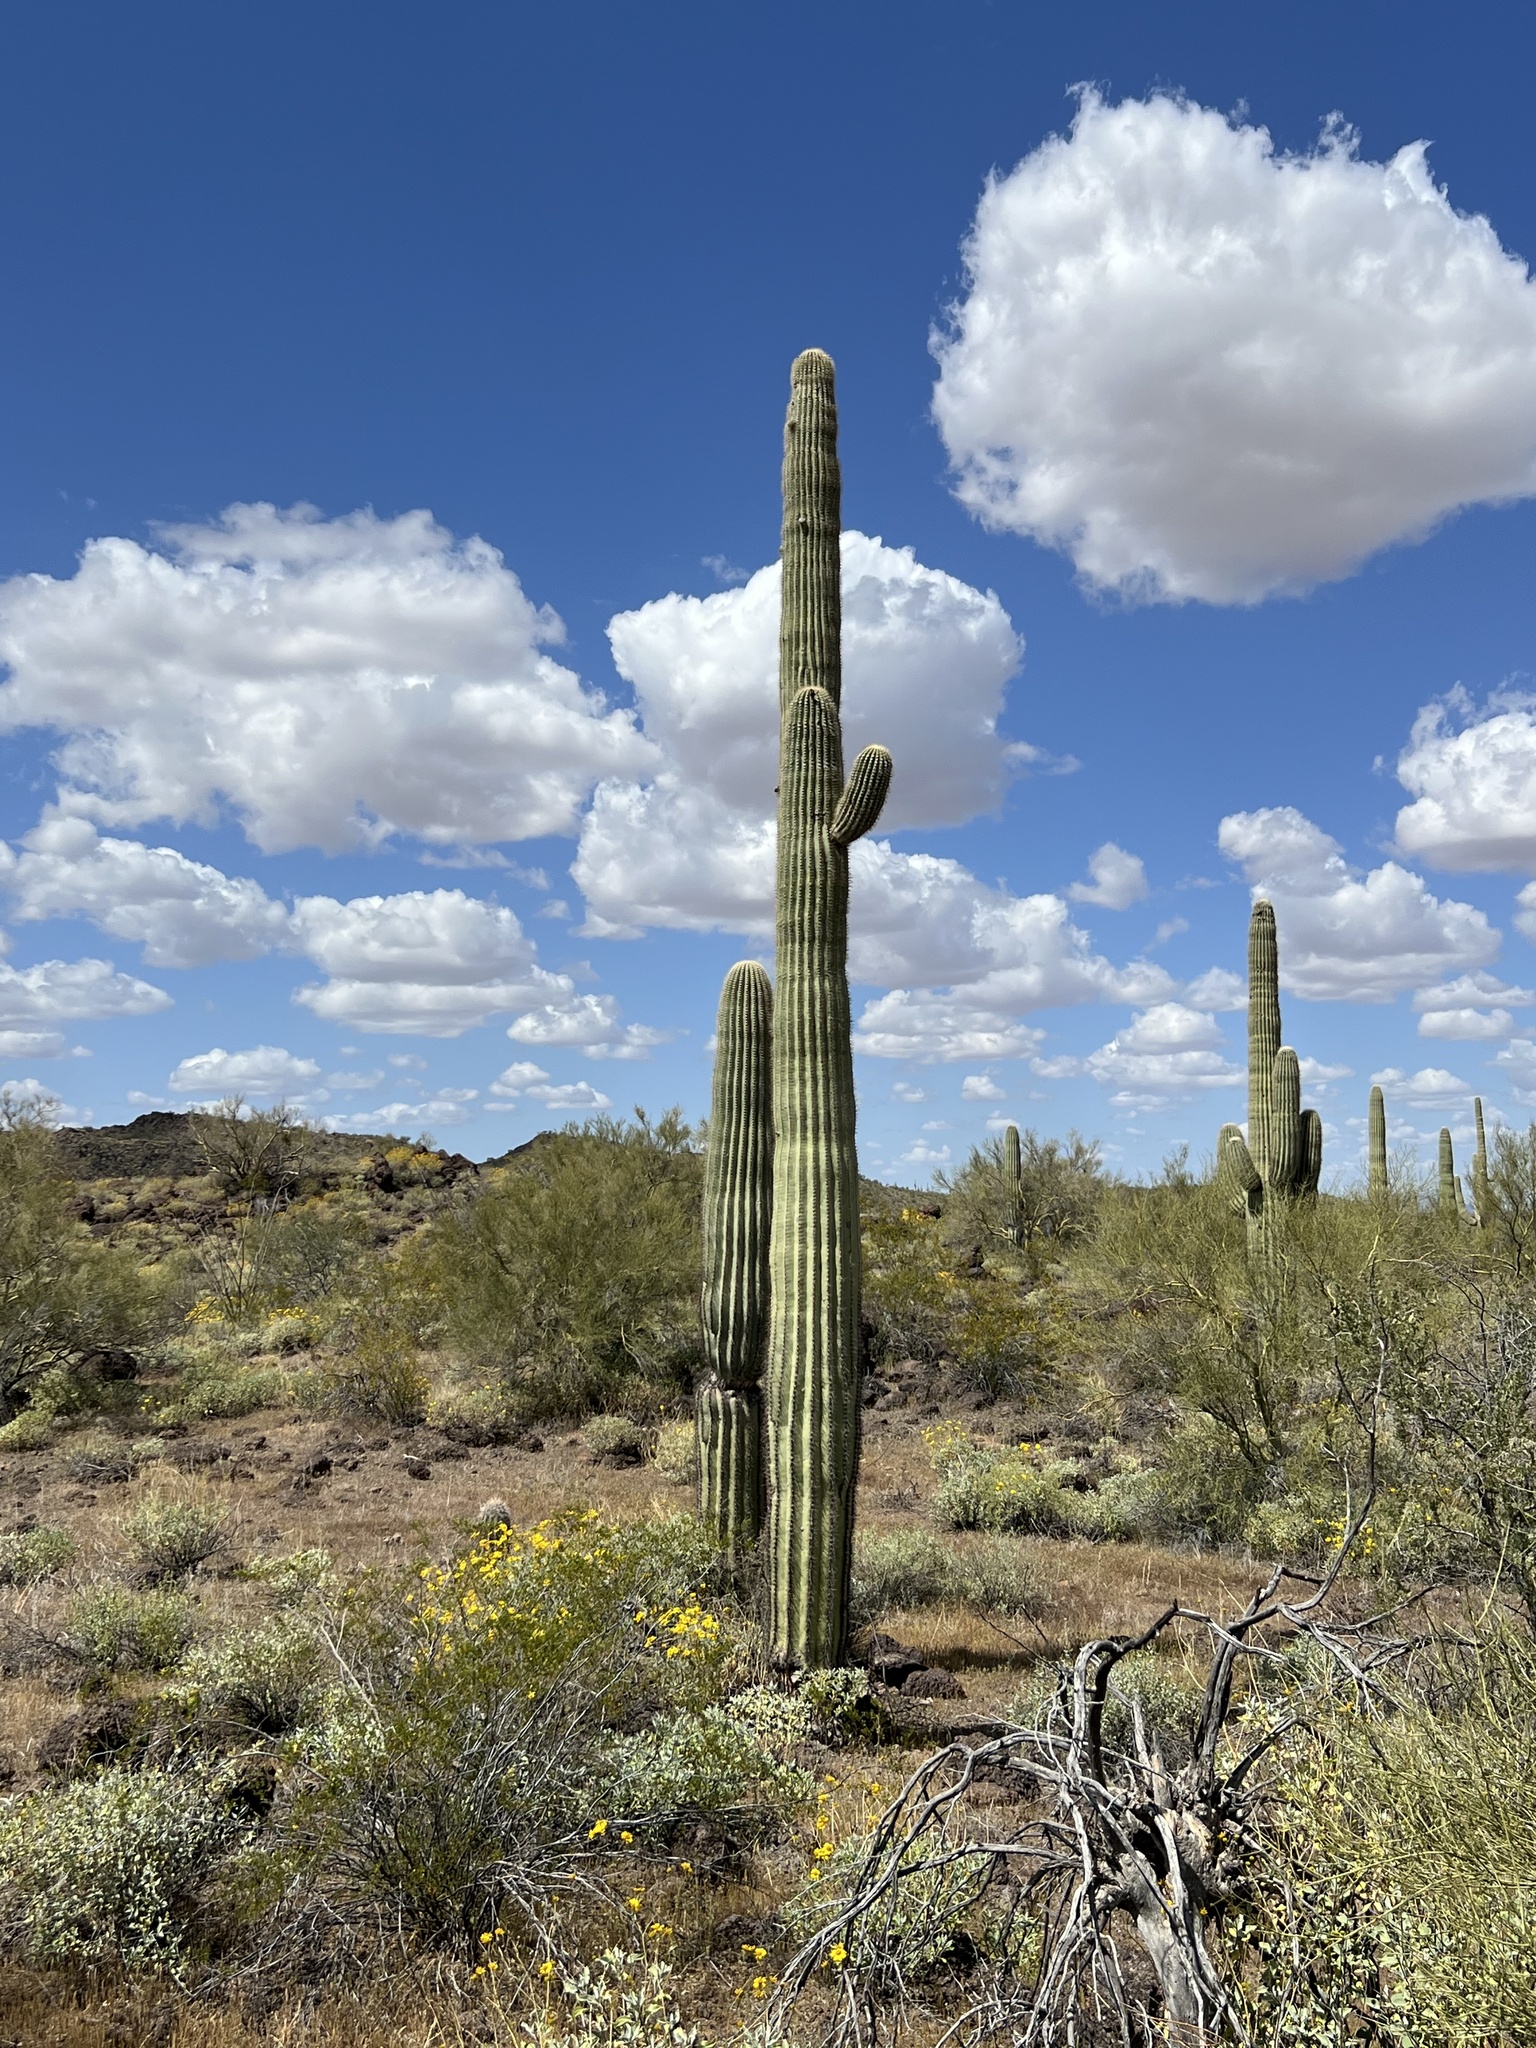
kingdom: Plantae
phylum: Tracheophyta
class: Magnoliopsida
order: Caryophyllales
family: Cactaceae
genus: Carnegiea
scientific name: Carnegiea gigantea
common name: Saguaro
